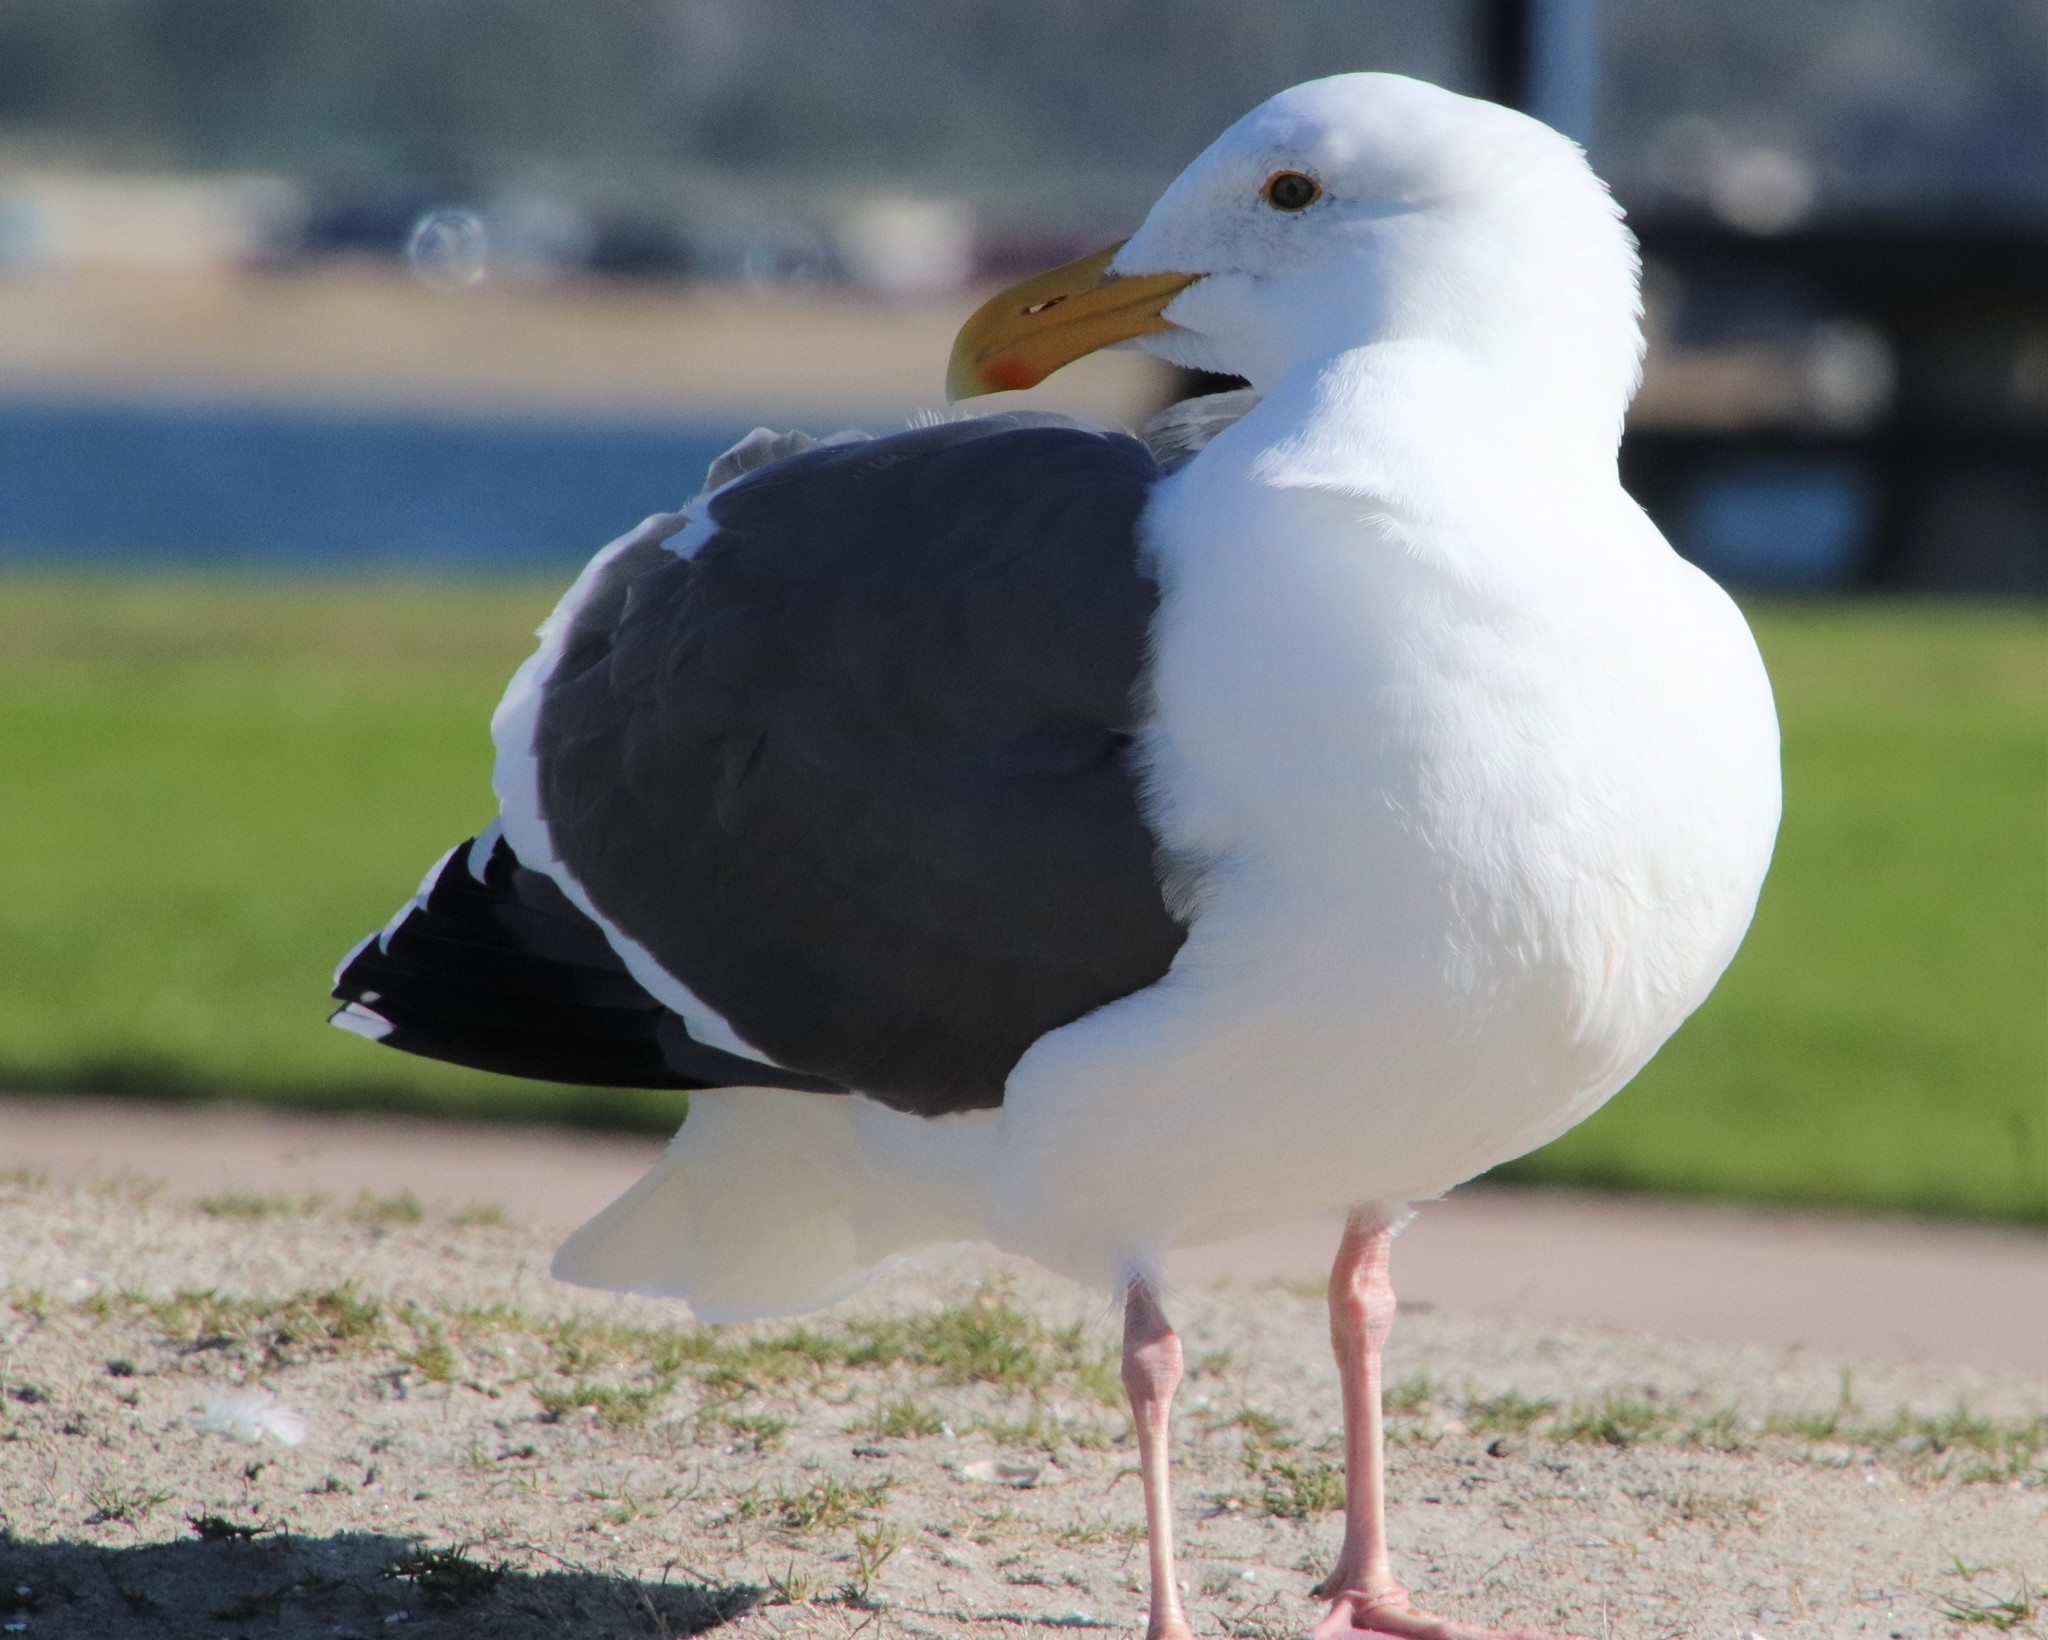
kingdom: Animalia
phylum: Chordata
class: Aves
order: Charadriiformes
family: Laridae
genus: Larus
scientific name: Larus occidentalis
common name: Western gull
